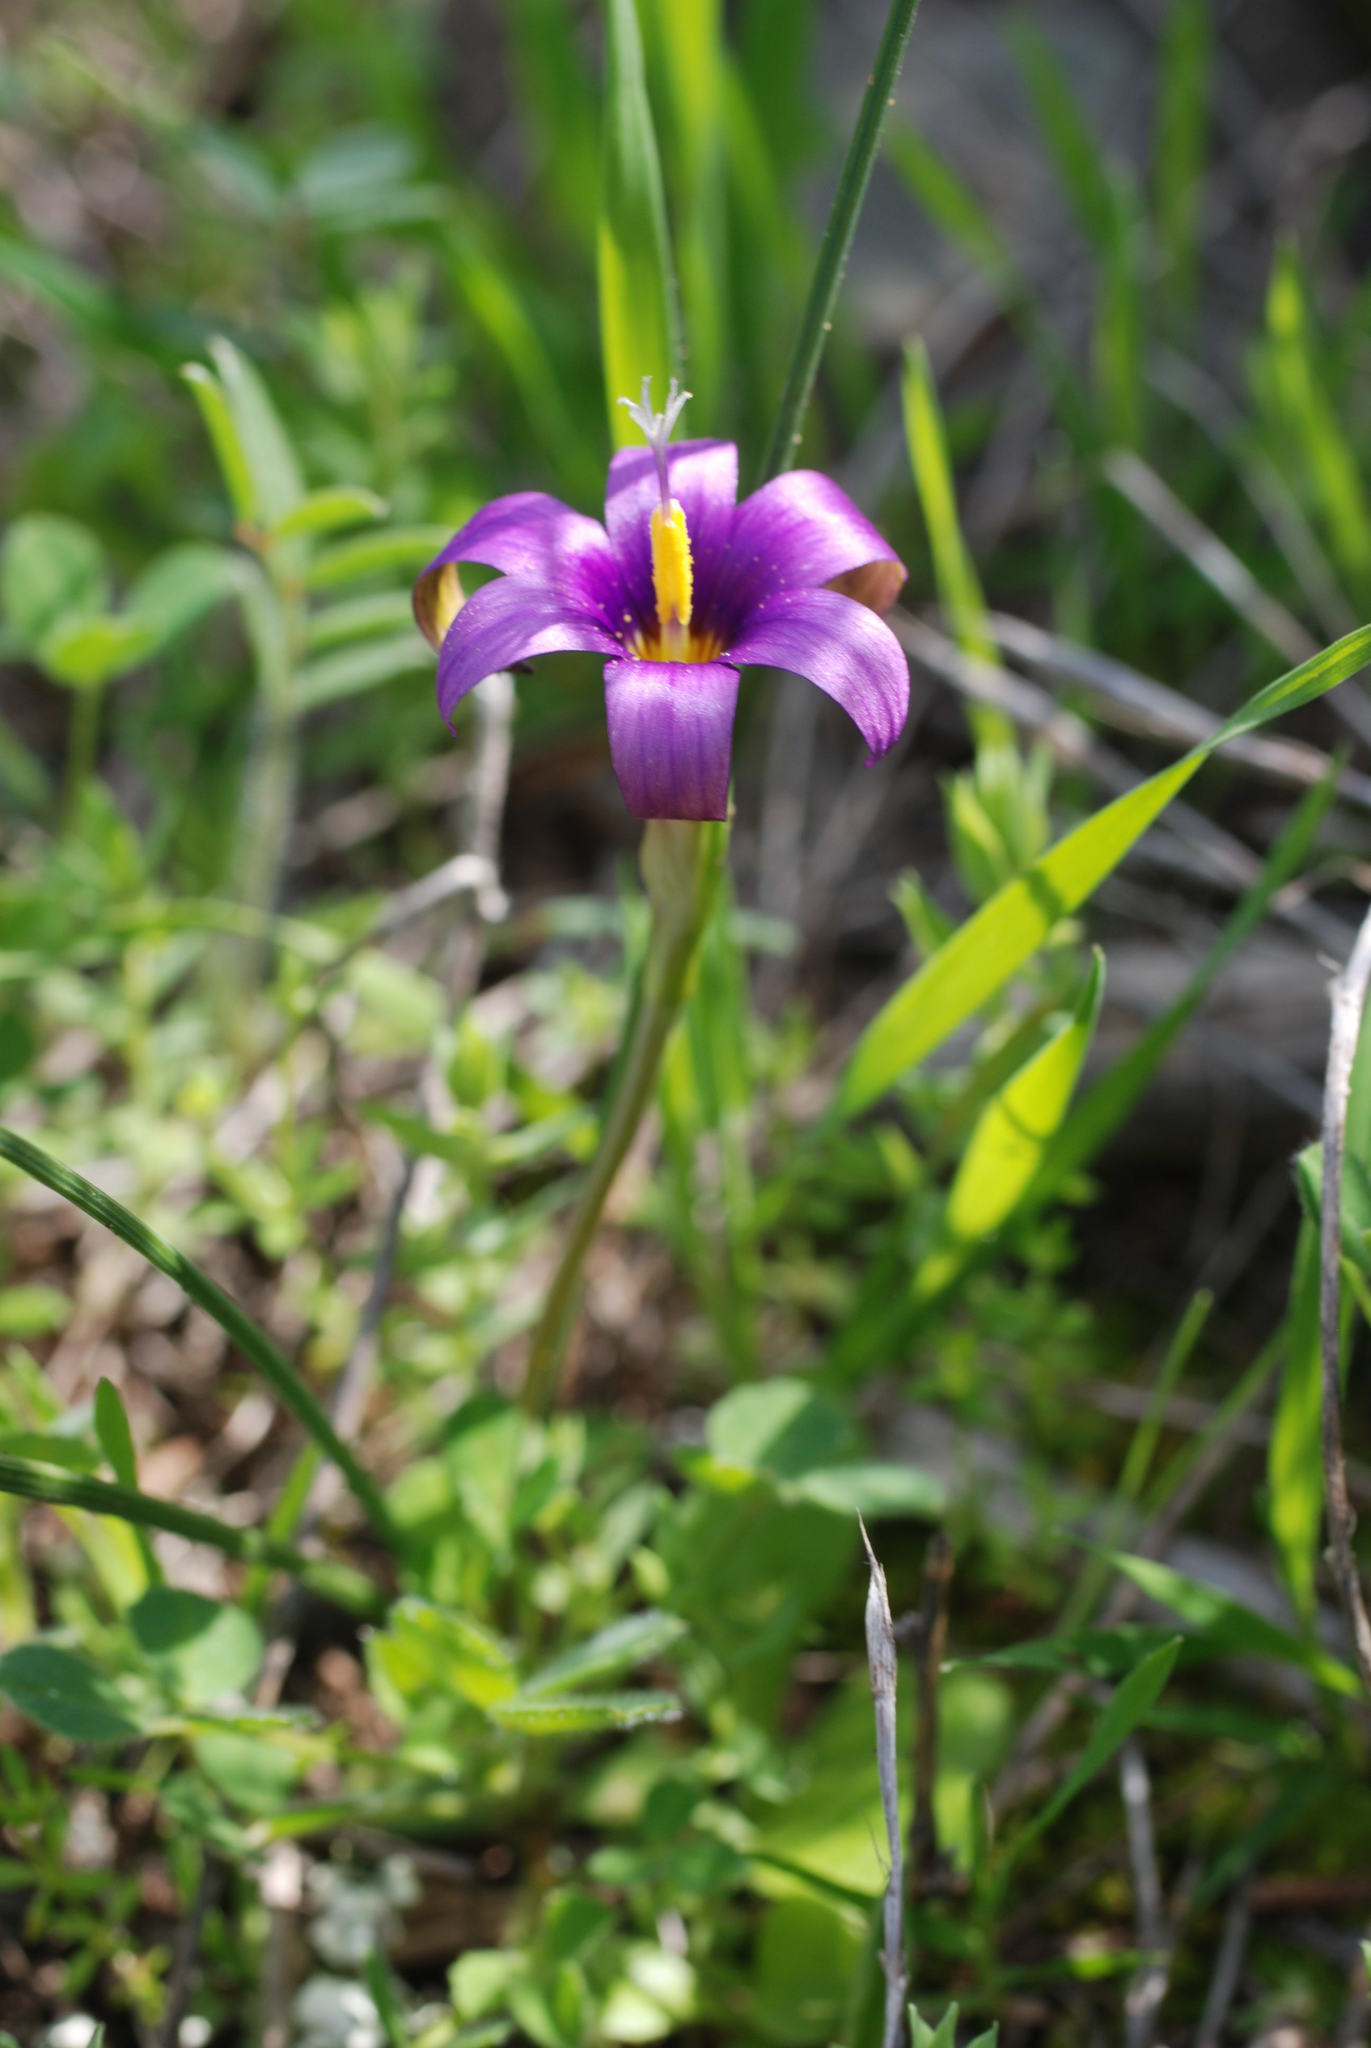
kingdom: Plantae
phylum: Tracheophyta
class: Liliopsida
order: Asparagales
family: Iridaceae
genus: Romulea
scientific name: Romulea tempskyana
